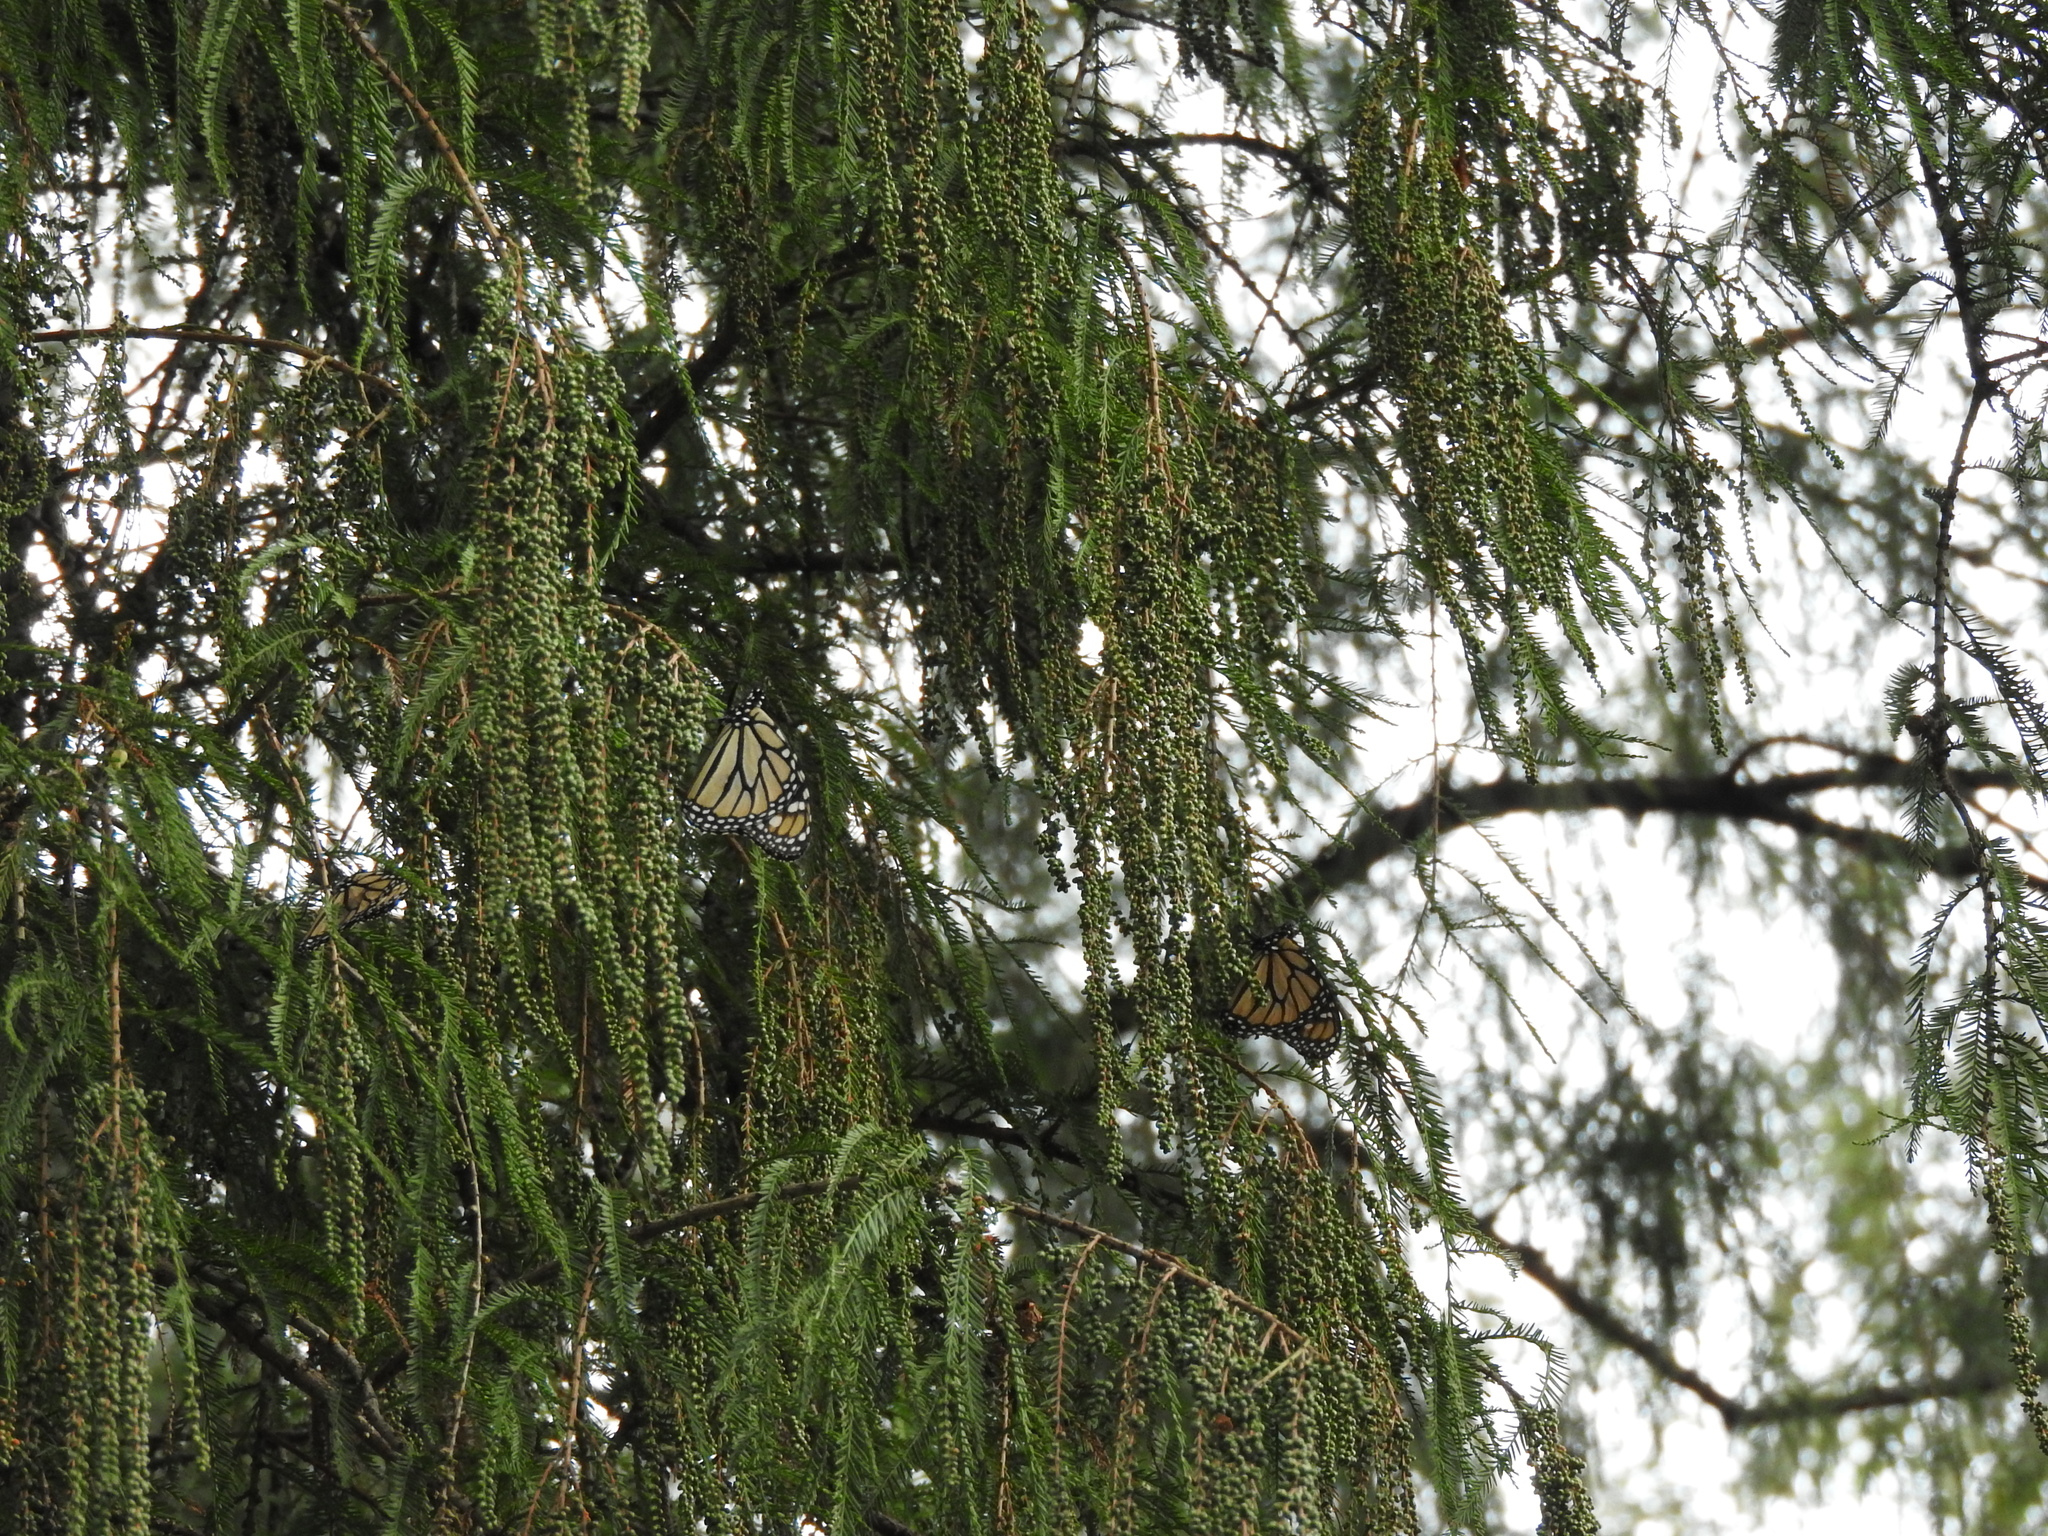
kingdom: Animalia
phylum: Arthropoda
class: Insecta
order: Lepidoptera
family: Nymphalidae
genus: Danaus
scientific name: Danaus plexippus
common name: Monarch
